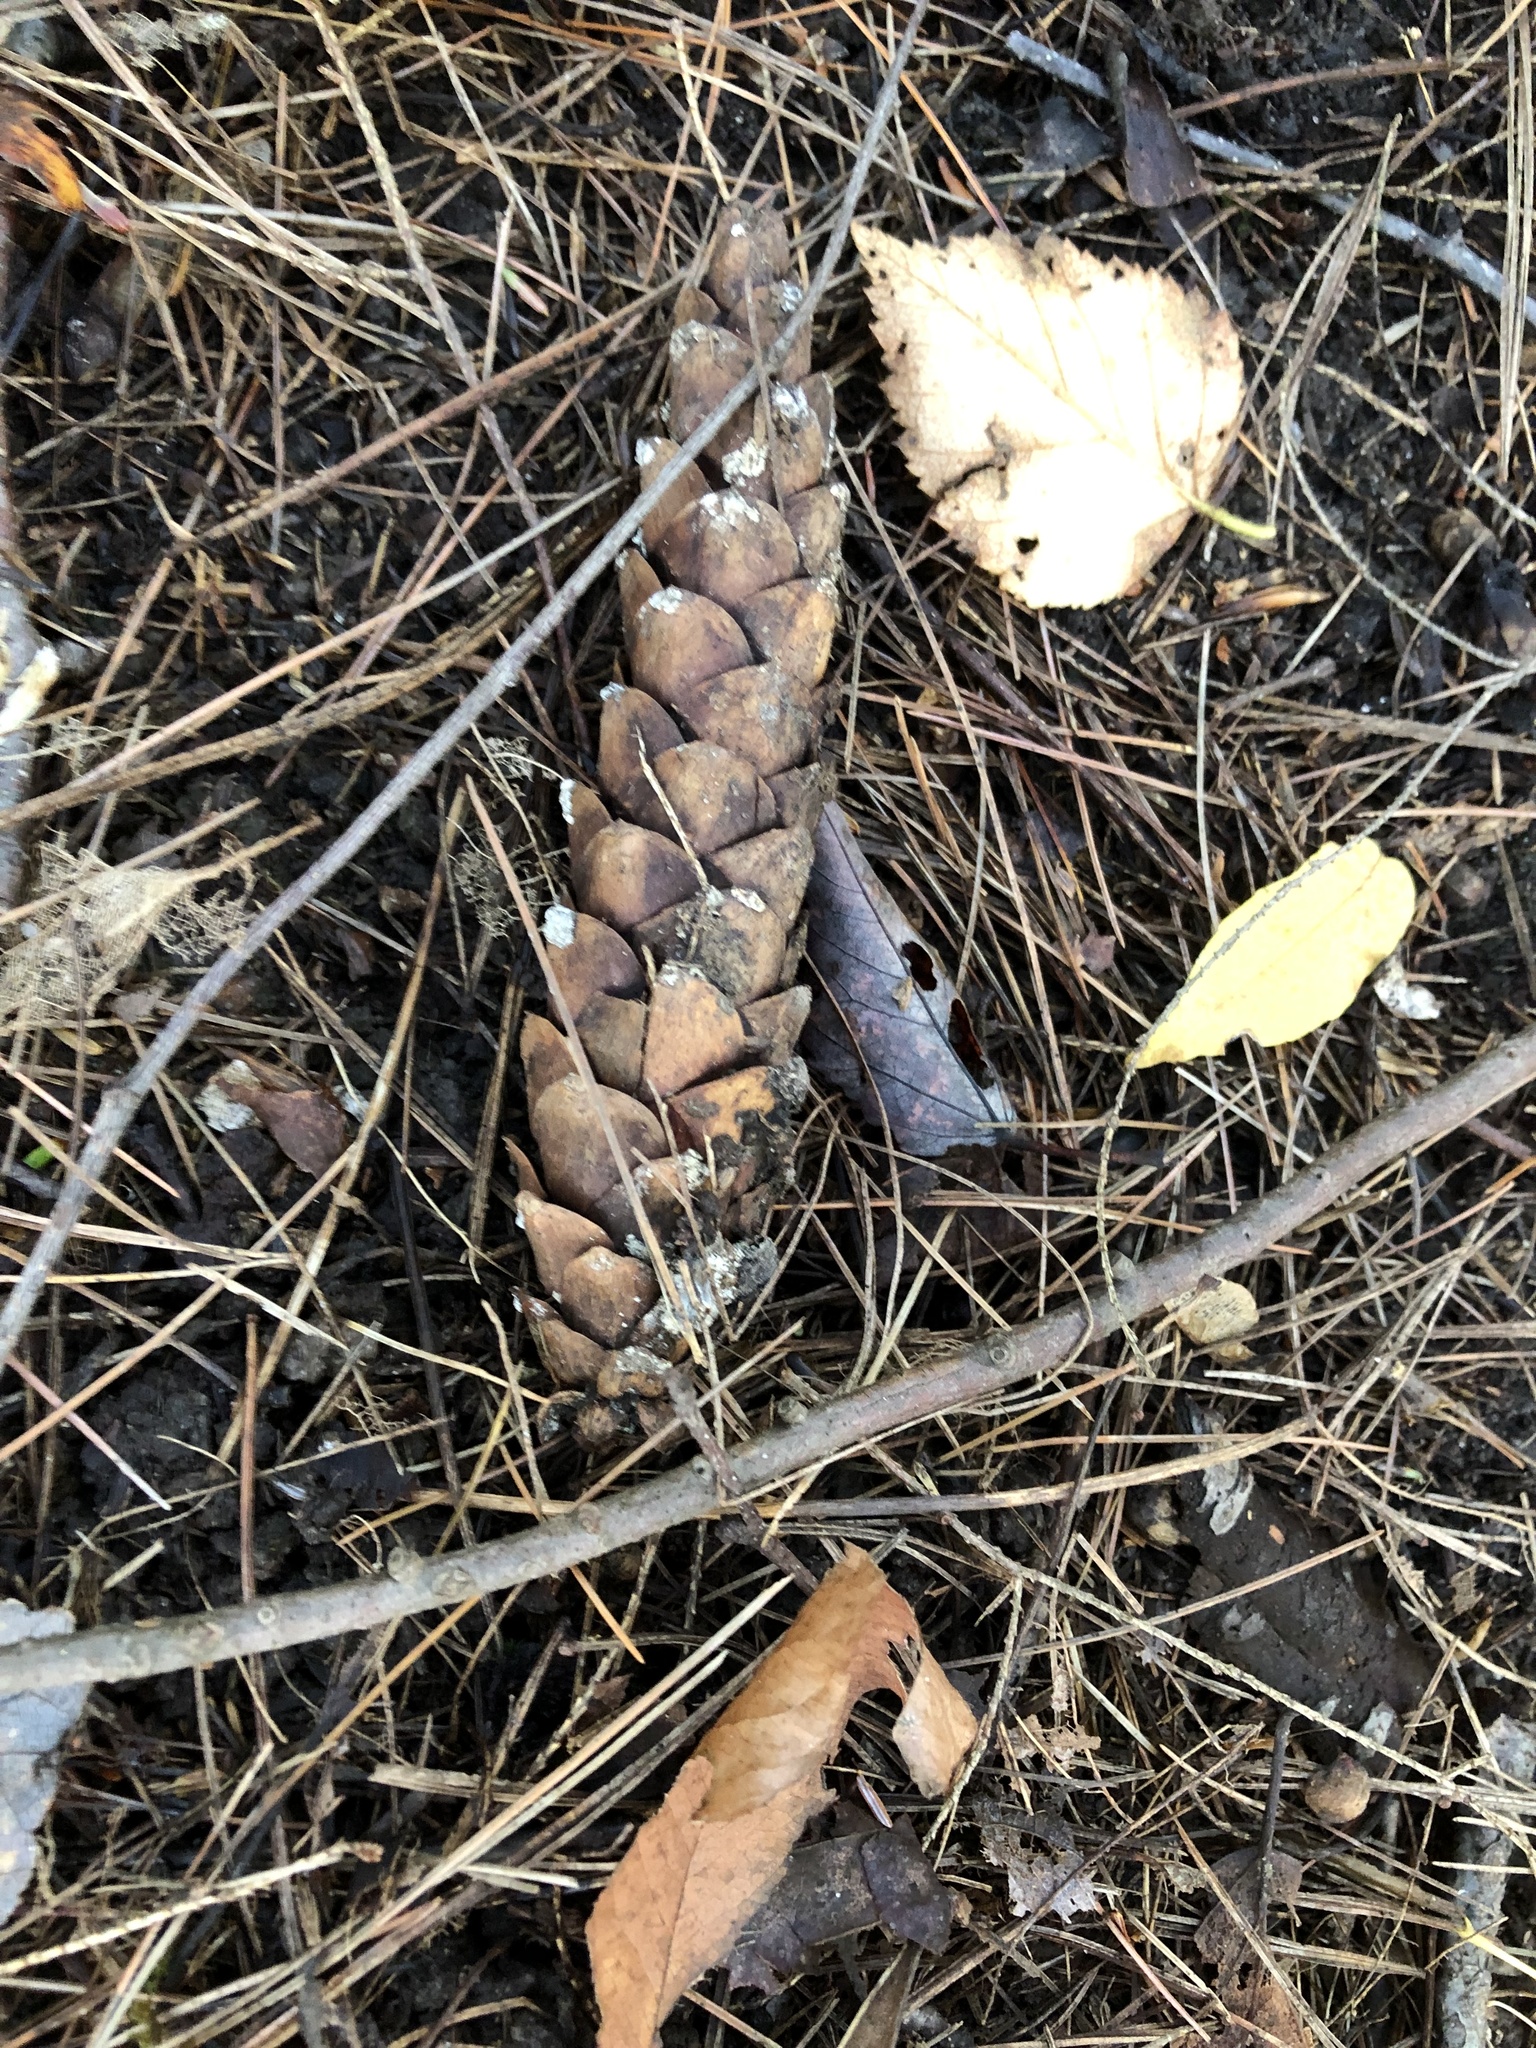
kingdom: Plantae
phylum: Tracheophyta
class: Pinopsida
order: Pinales
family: Pinaceae
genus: Pinus
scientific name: Pinus strobus
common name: Weymouth pine
